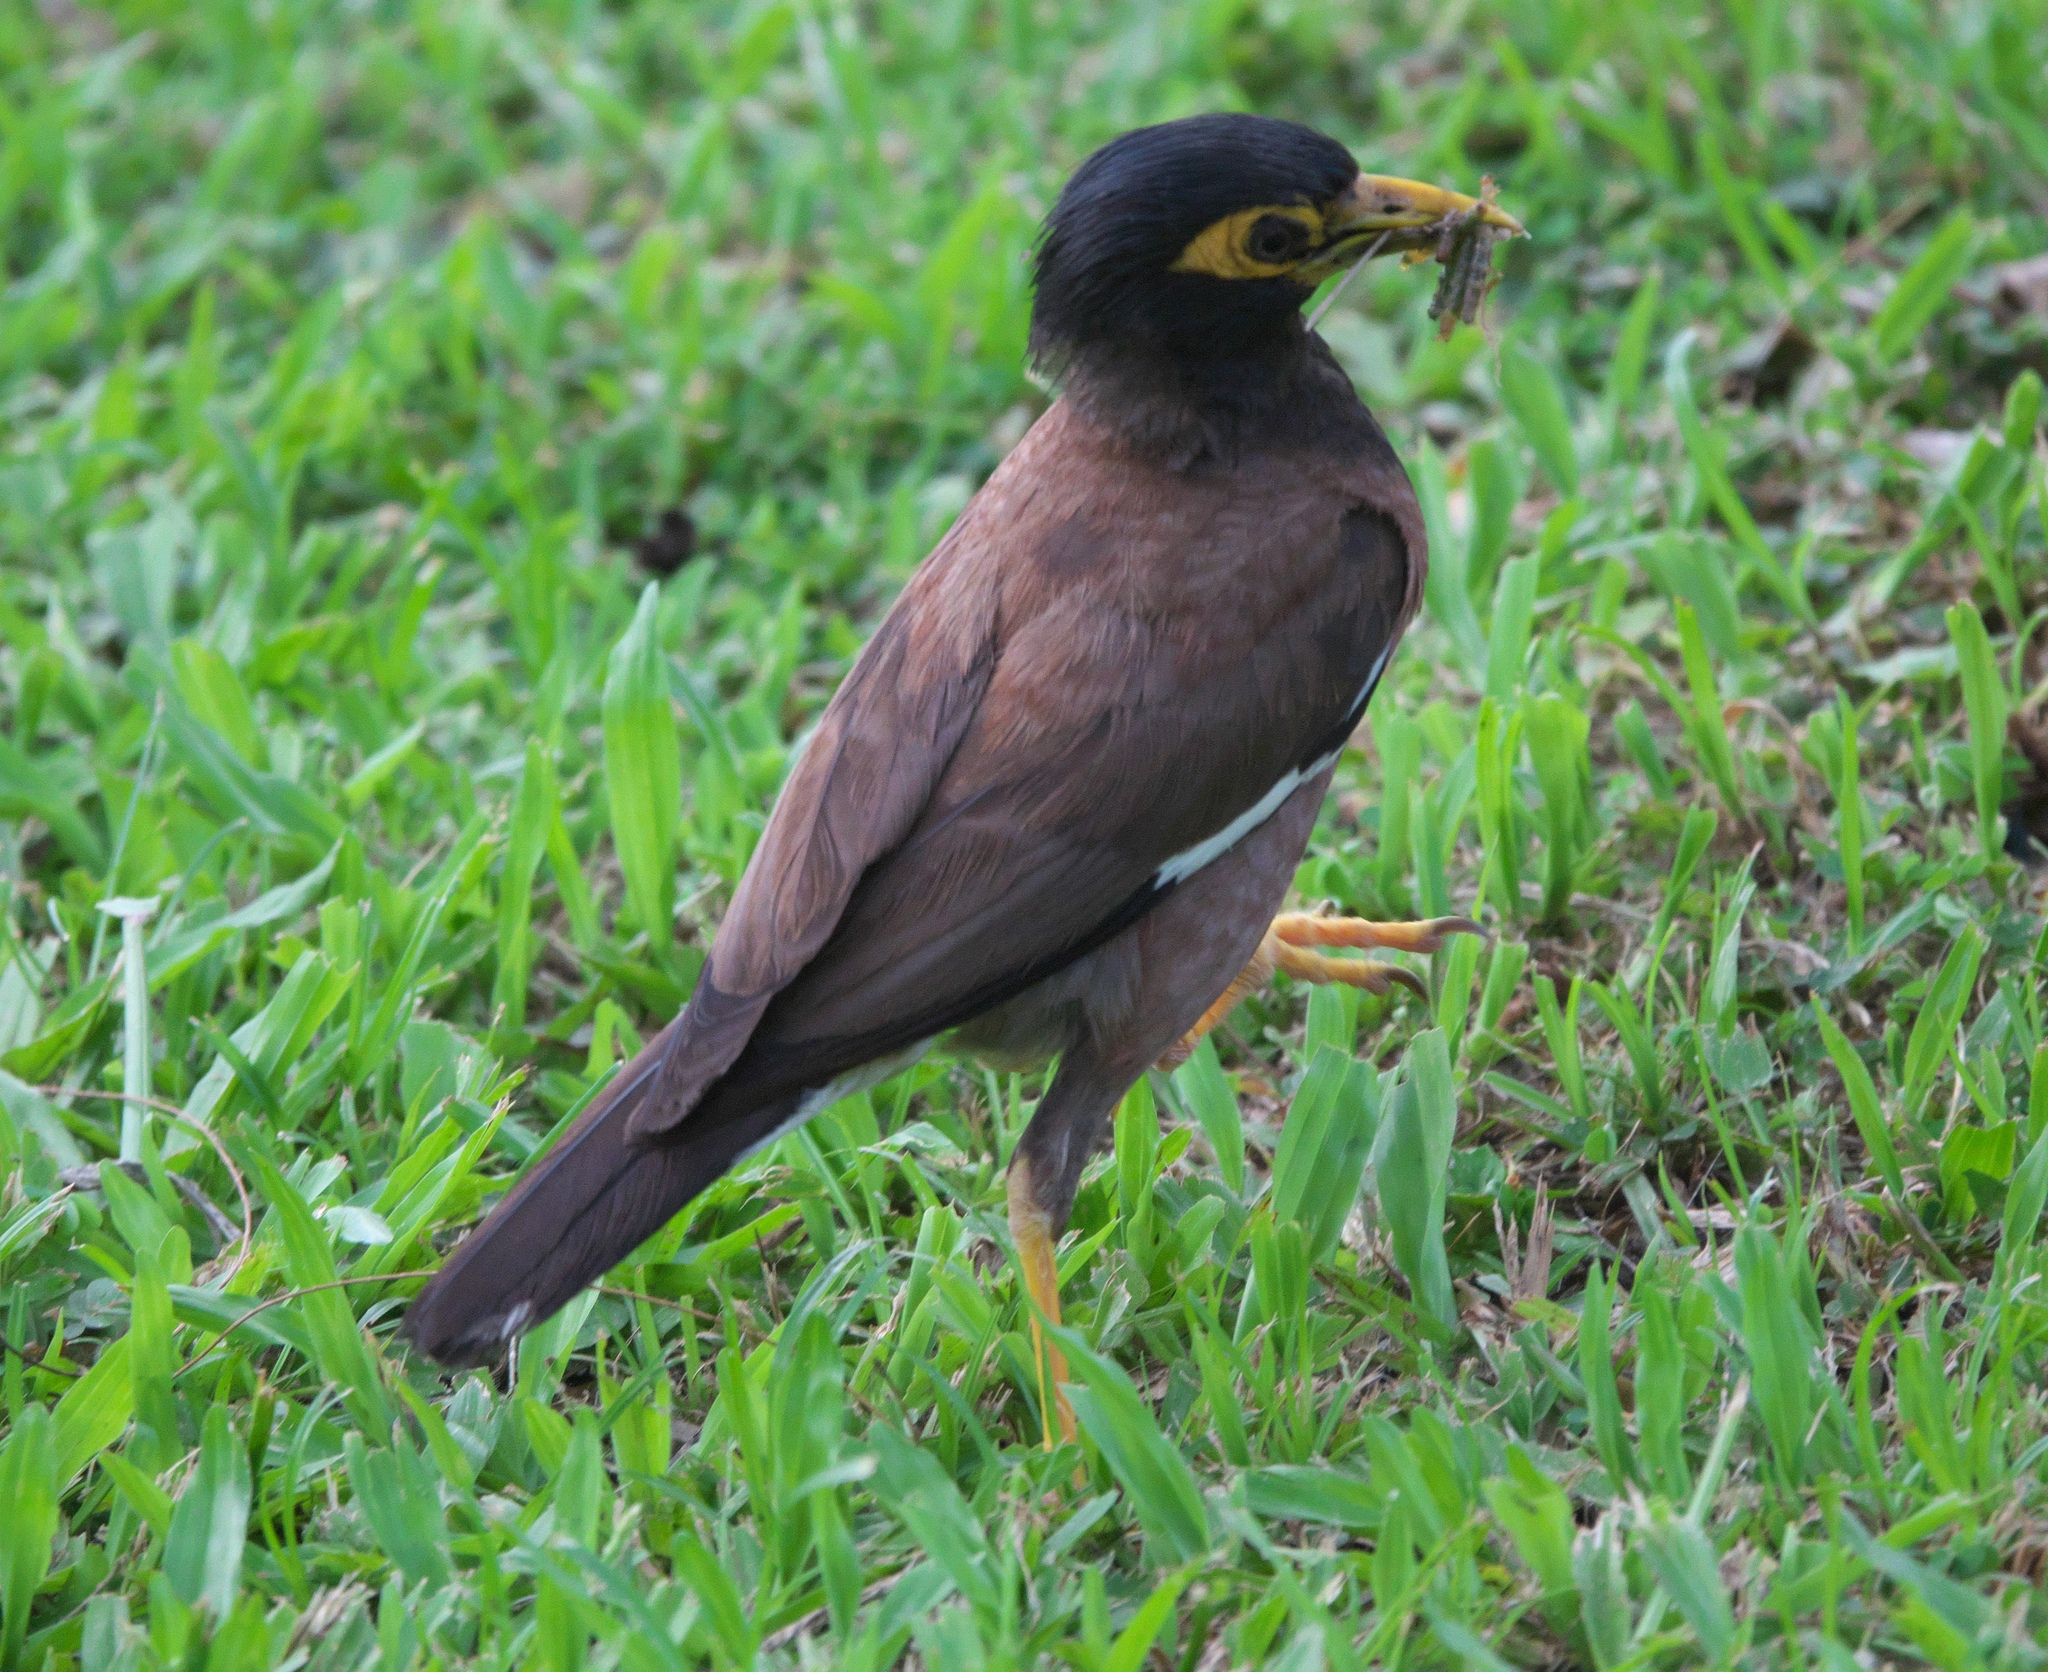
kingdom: Animalia
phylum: Chordata
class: Aves
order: Passeriformes
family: Sturnidae
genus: Acridotheres
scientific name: Acridotheres tristis
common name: Common myna
